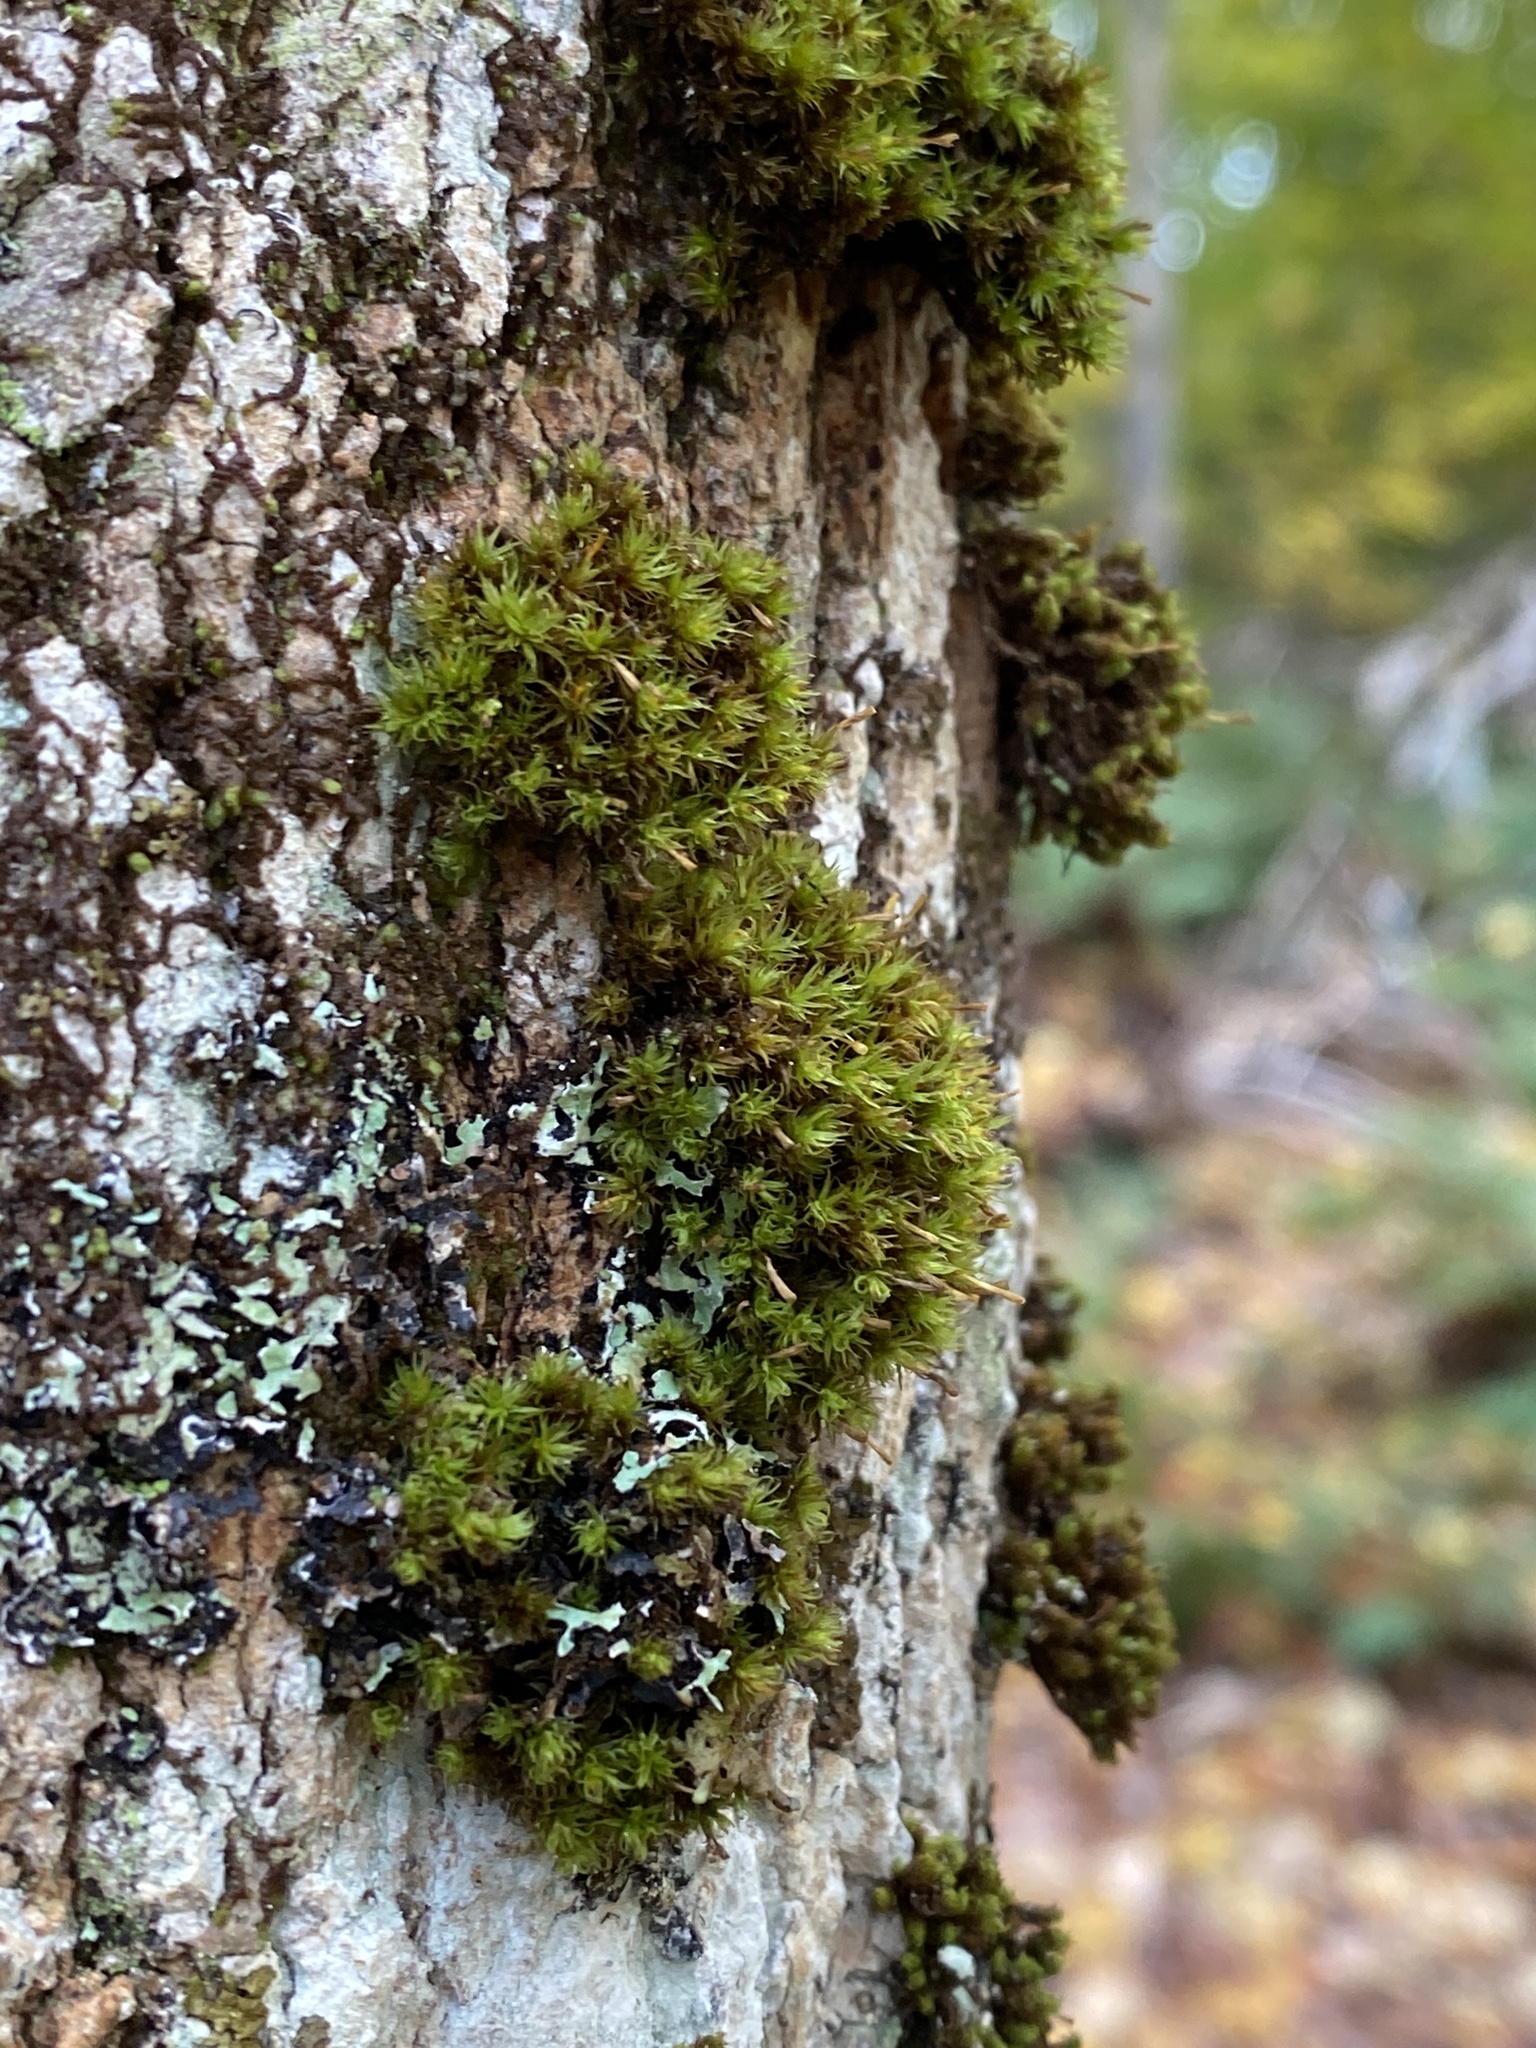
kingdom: Plantae
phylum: Bryophyta
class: Bryopsida
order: Orthotrichales
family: Orthotrichaceae
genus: Ulota
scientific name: Ulota crispa
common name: Crisped pincushion moss
